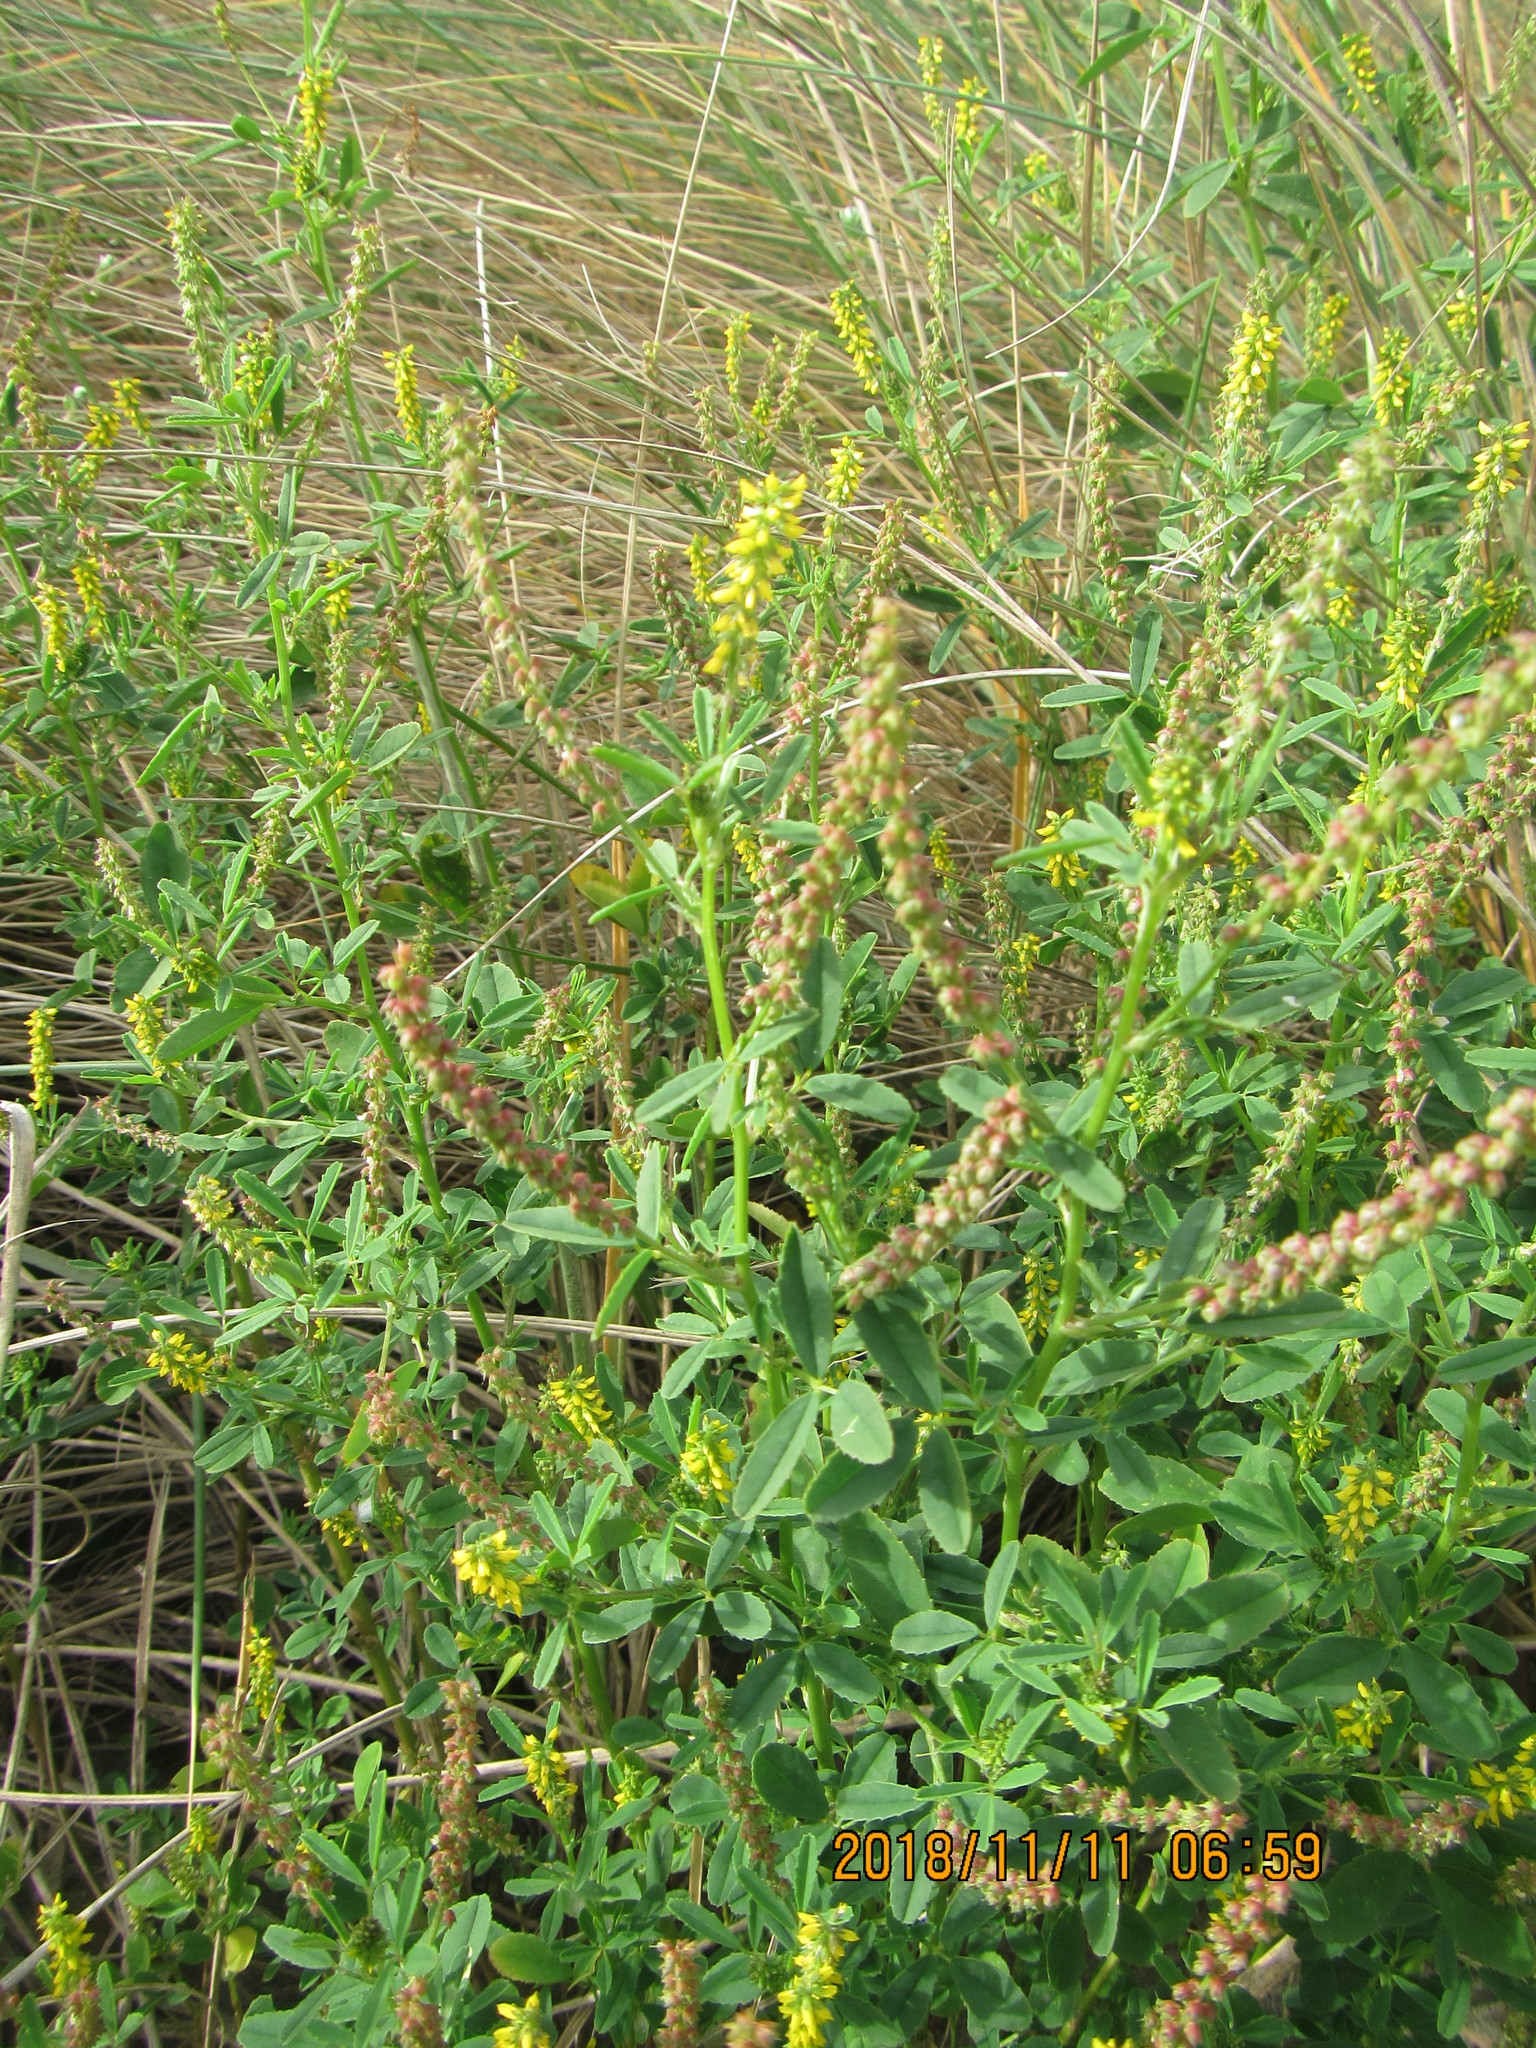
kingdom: Plantae
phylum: Tracheophyta
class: Magnoliopsida
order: Fabales
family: Fabaceae
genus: Melilotus
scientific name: Melilotus indicus
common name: Small melilot
